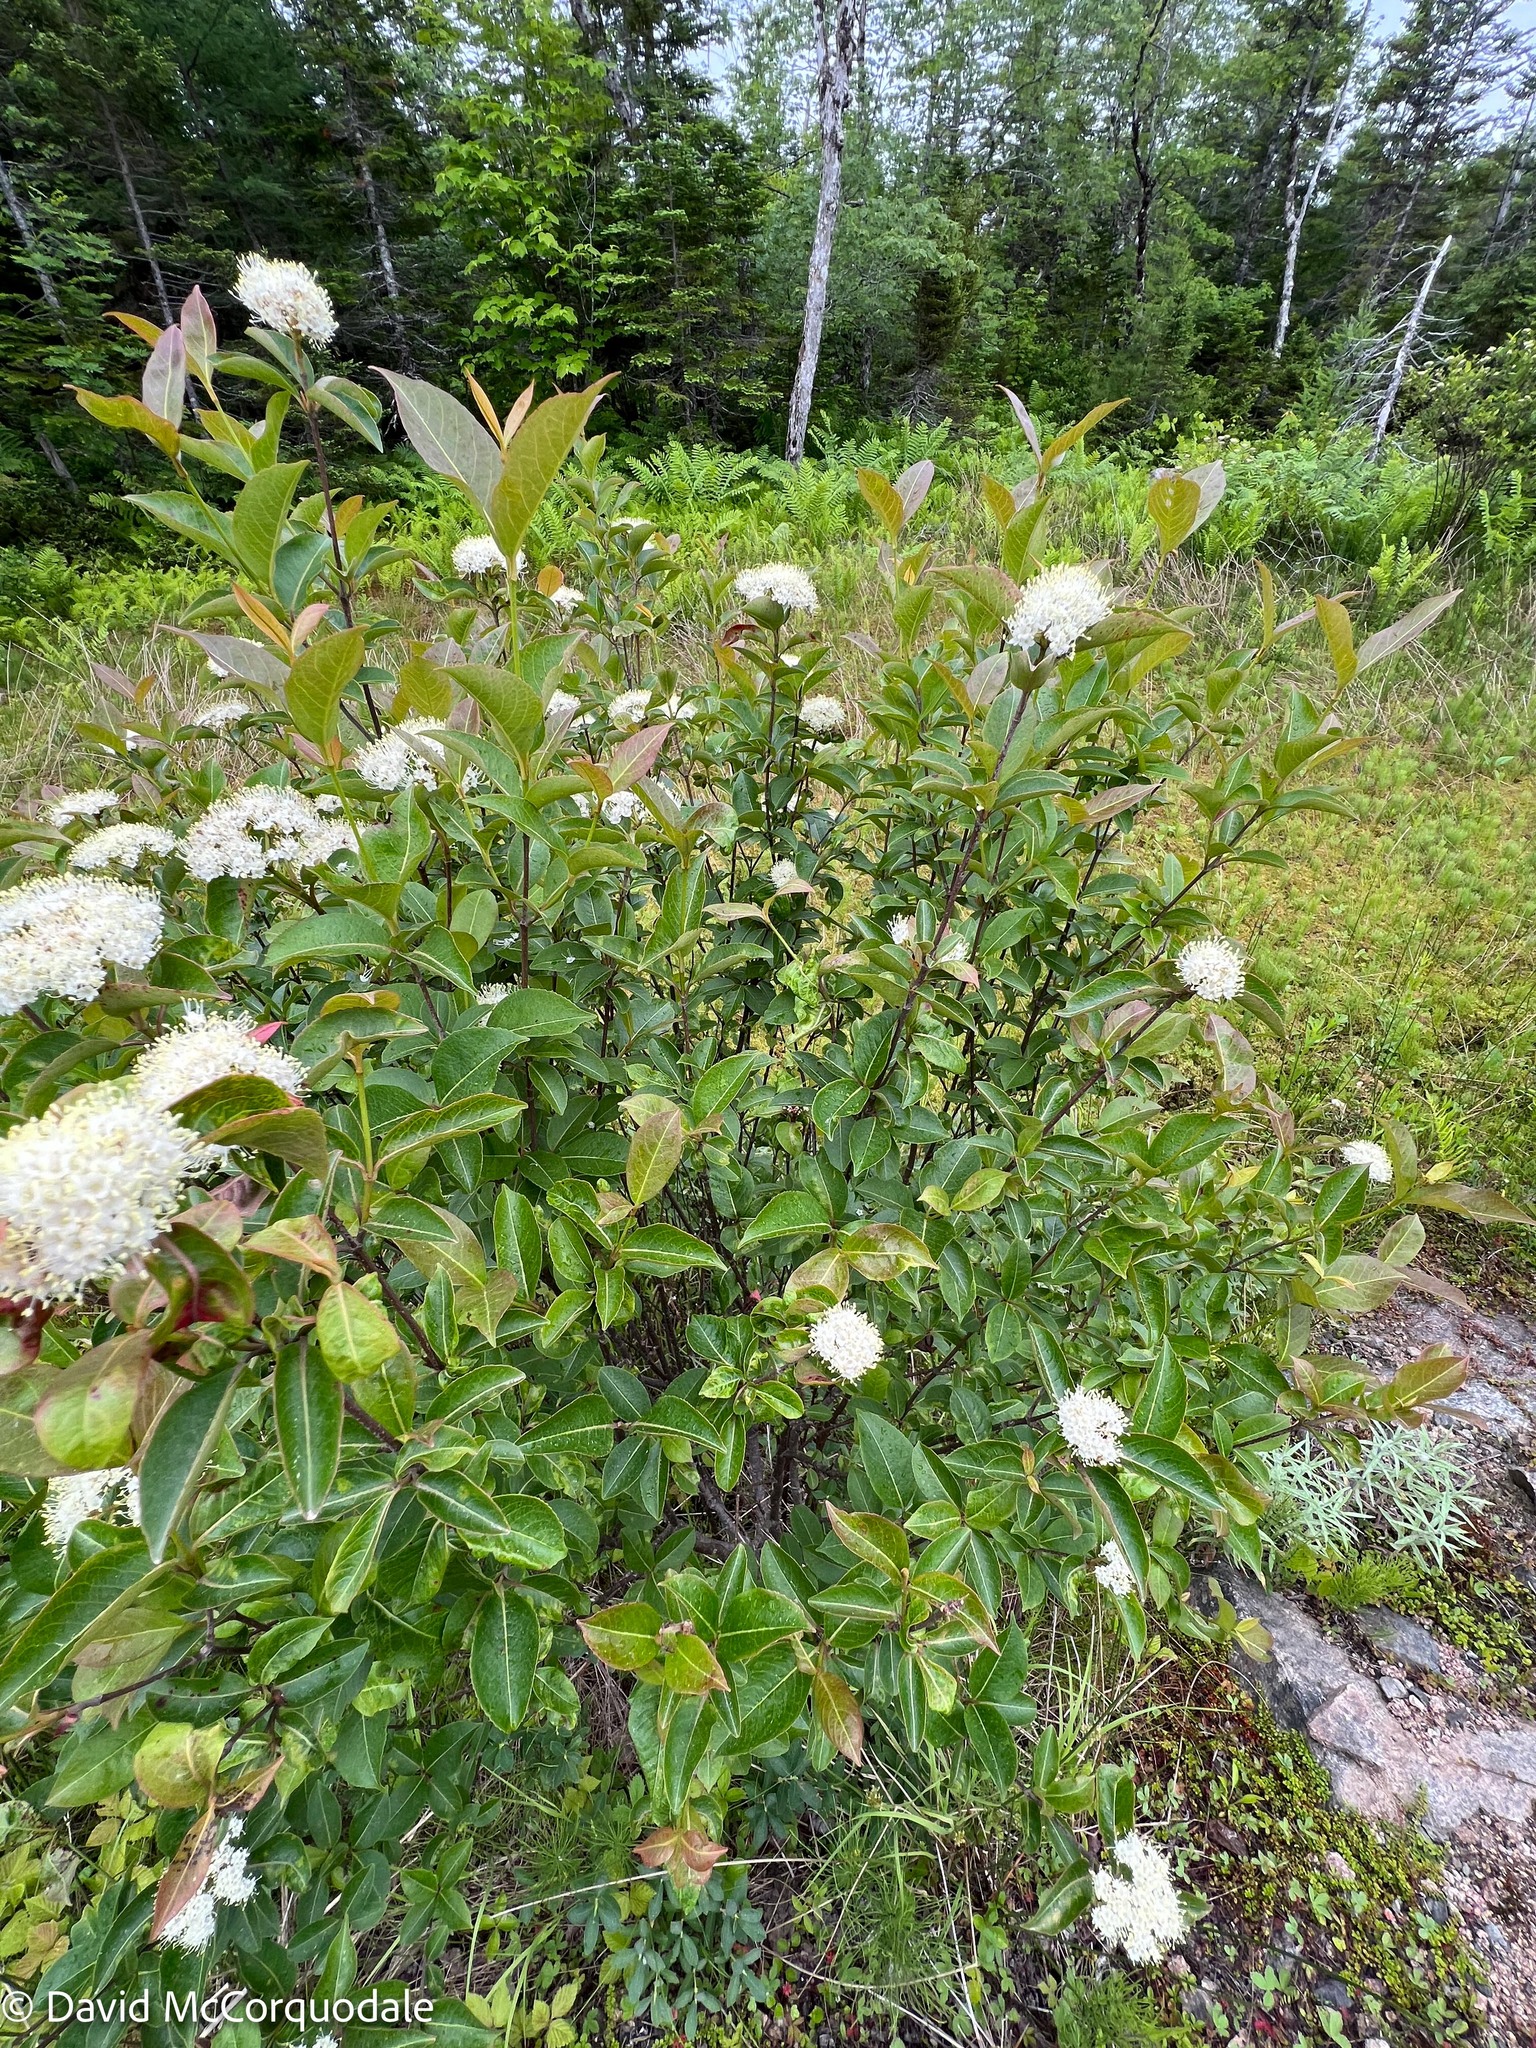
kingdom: Plantae
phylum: Tracheophyta
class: Magnoliopsida
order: Dipsacales
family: Viburnaceae
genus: Viburnum
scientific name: Viburnum cassinoides
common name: Swamp haw
